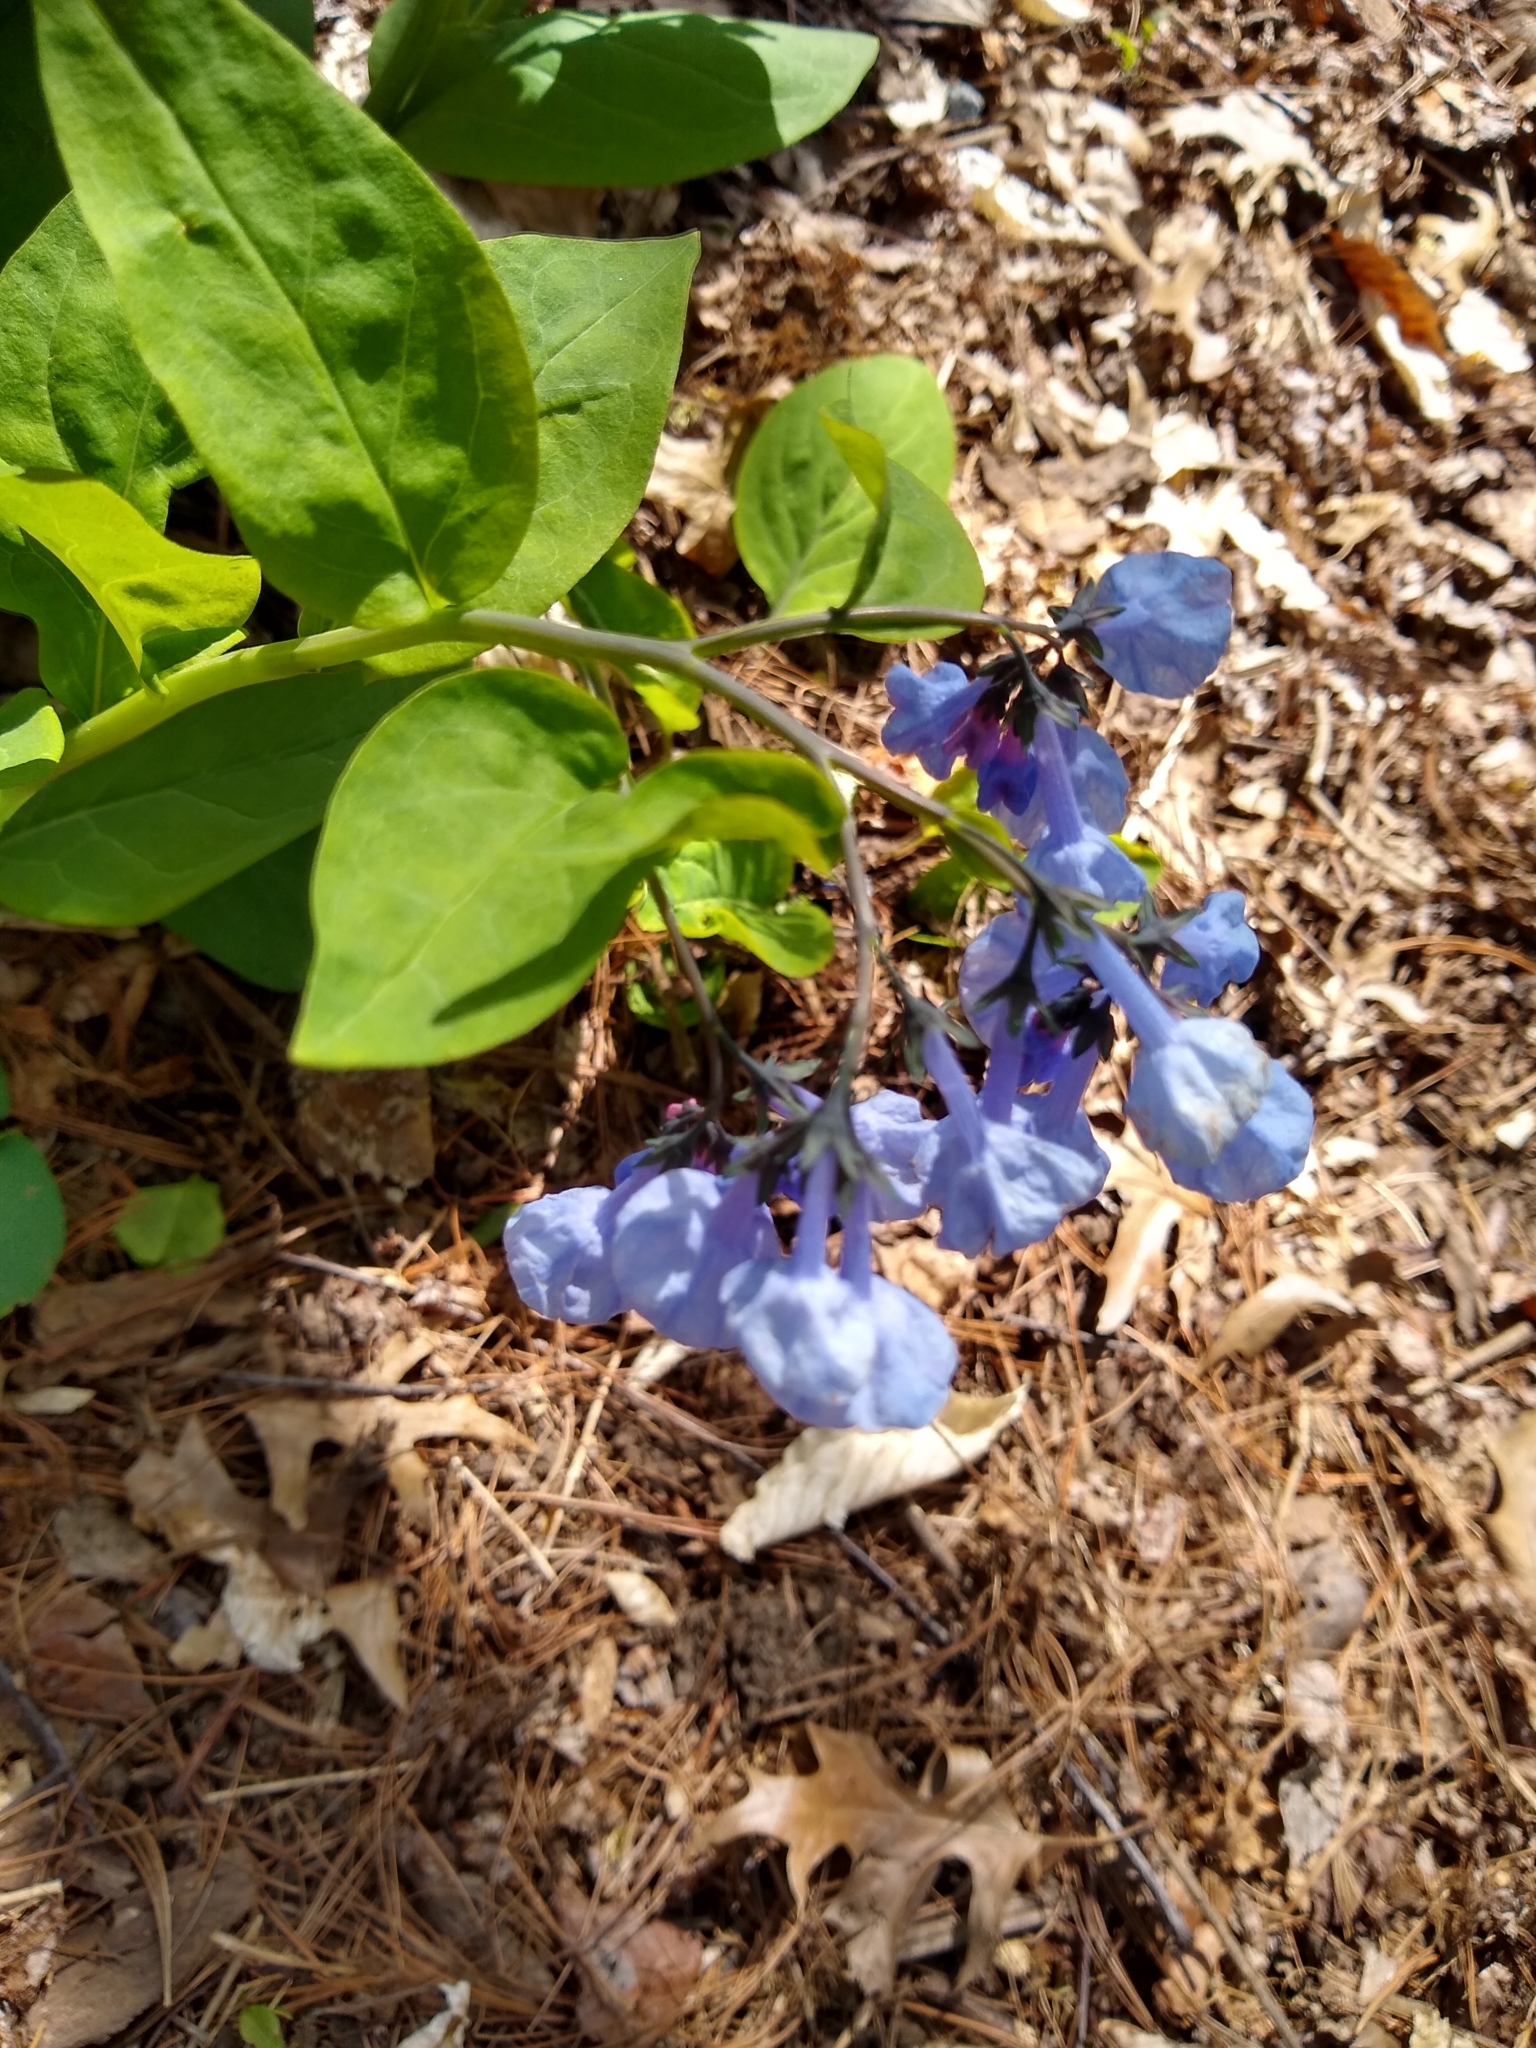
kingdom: Plantae
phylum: Tracheophyta
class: Magnoliopsida
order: Boraginales
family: Boraginaceae
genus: Mertensia
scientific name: Mertensia virginica
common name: Virginia bluebells
